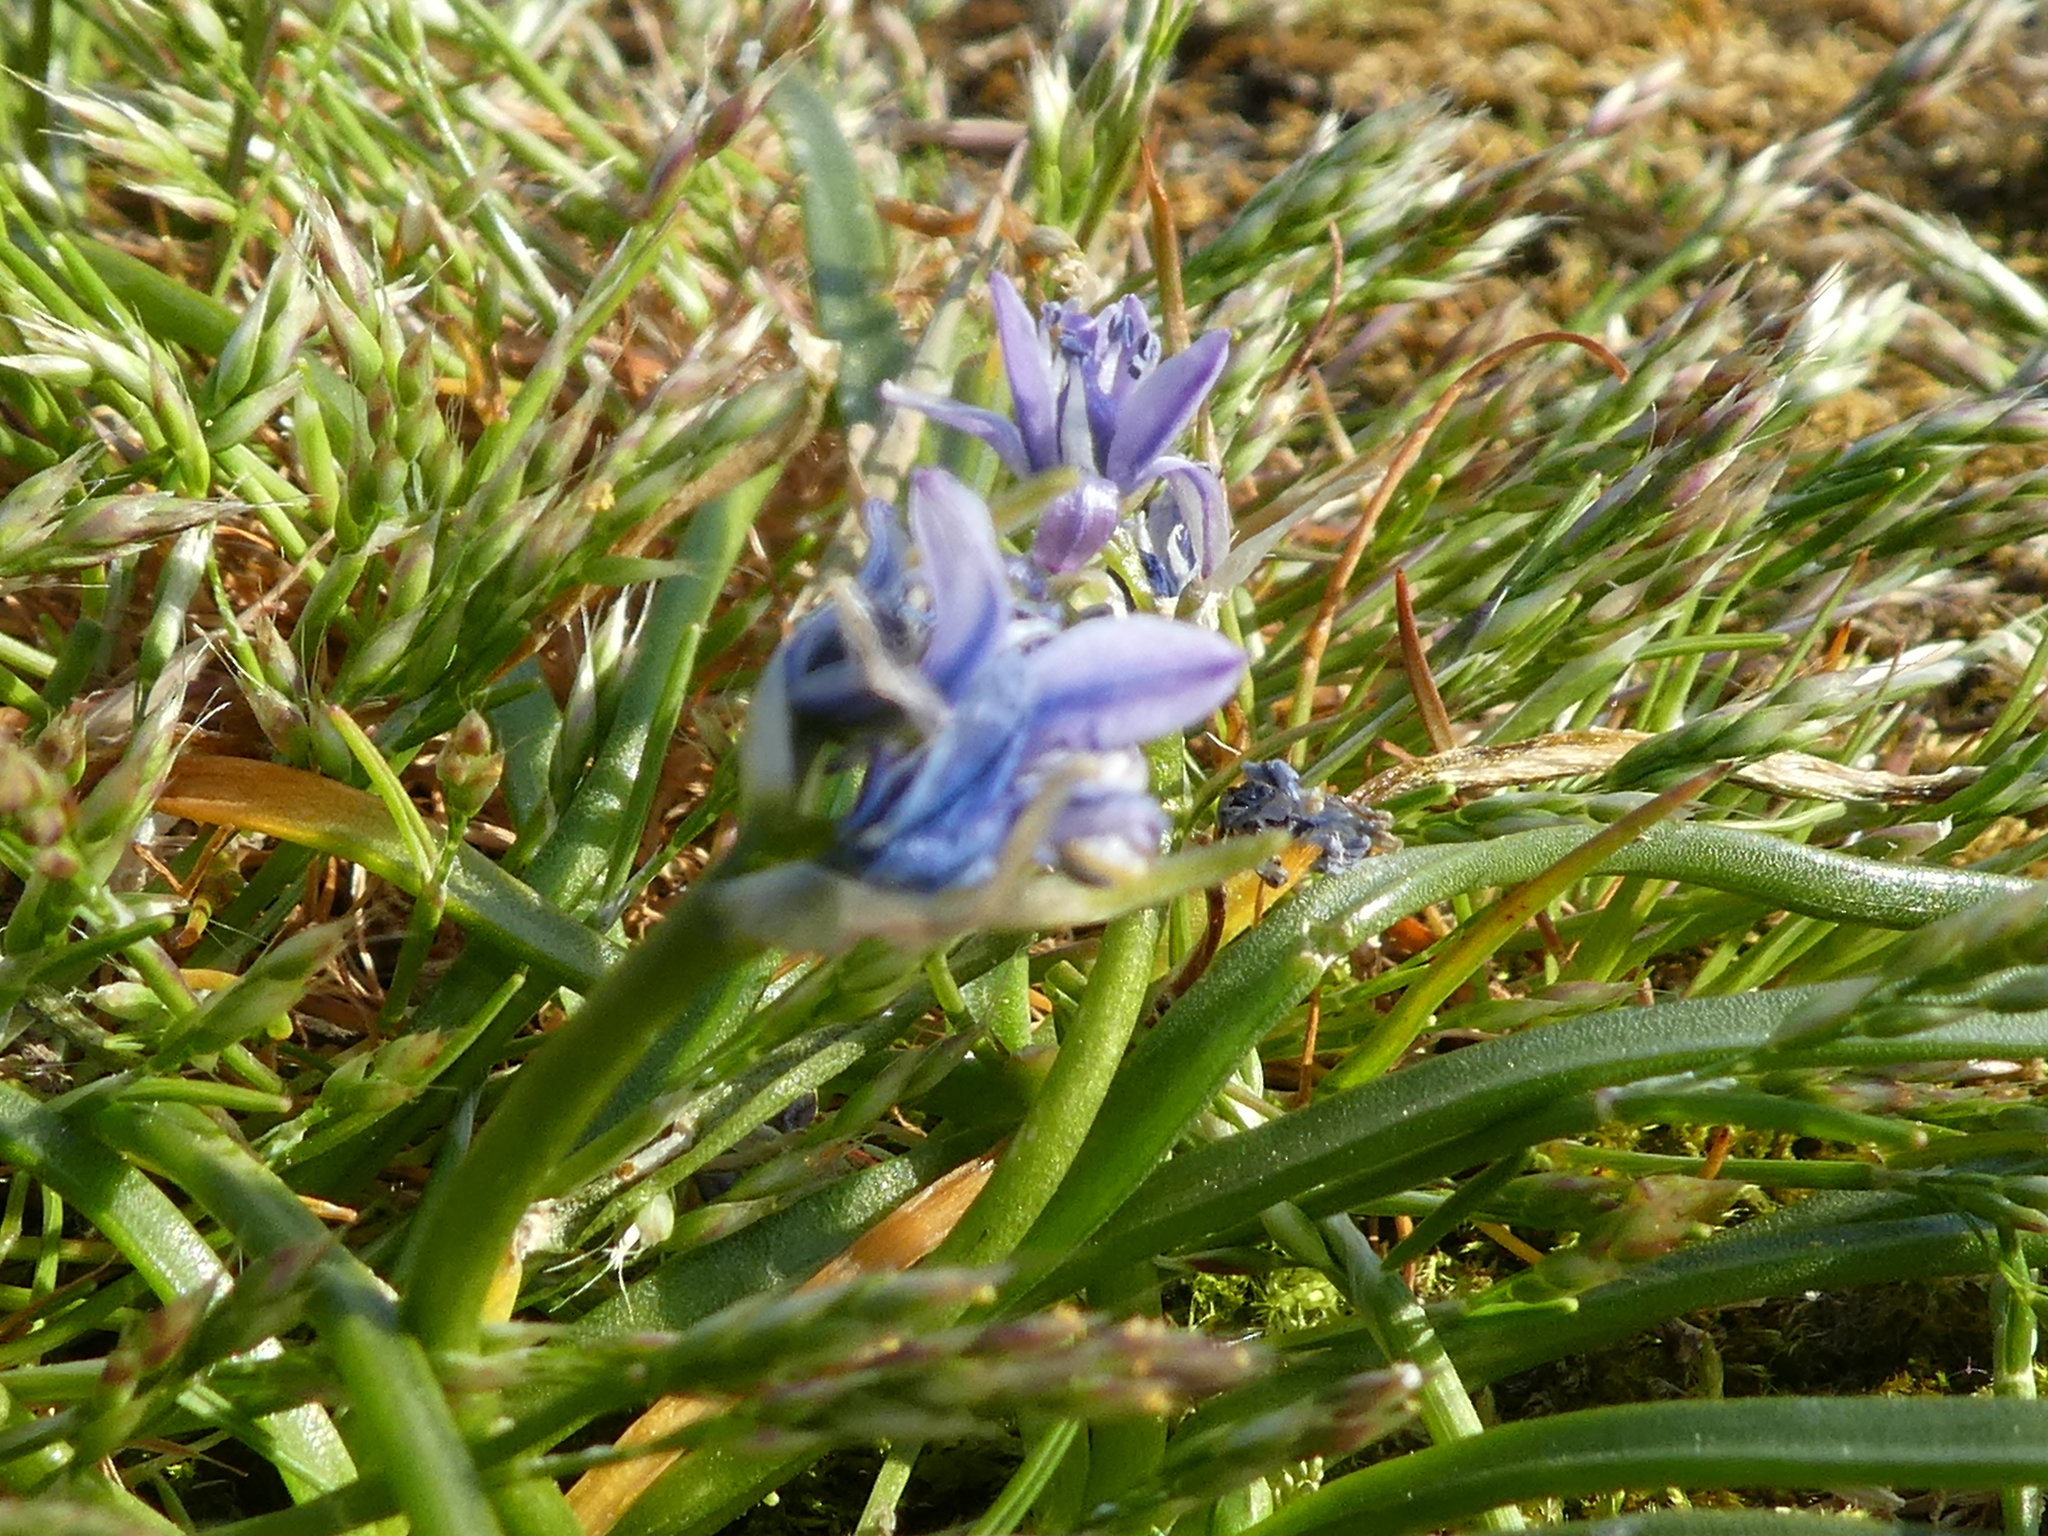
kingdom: Plantae
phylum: Tracheophyta
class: Liliopsida
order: Asparagales
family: Asparagaceae
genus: Scilla
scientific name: Scilla verna
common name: Spring squill
